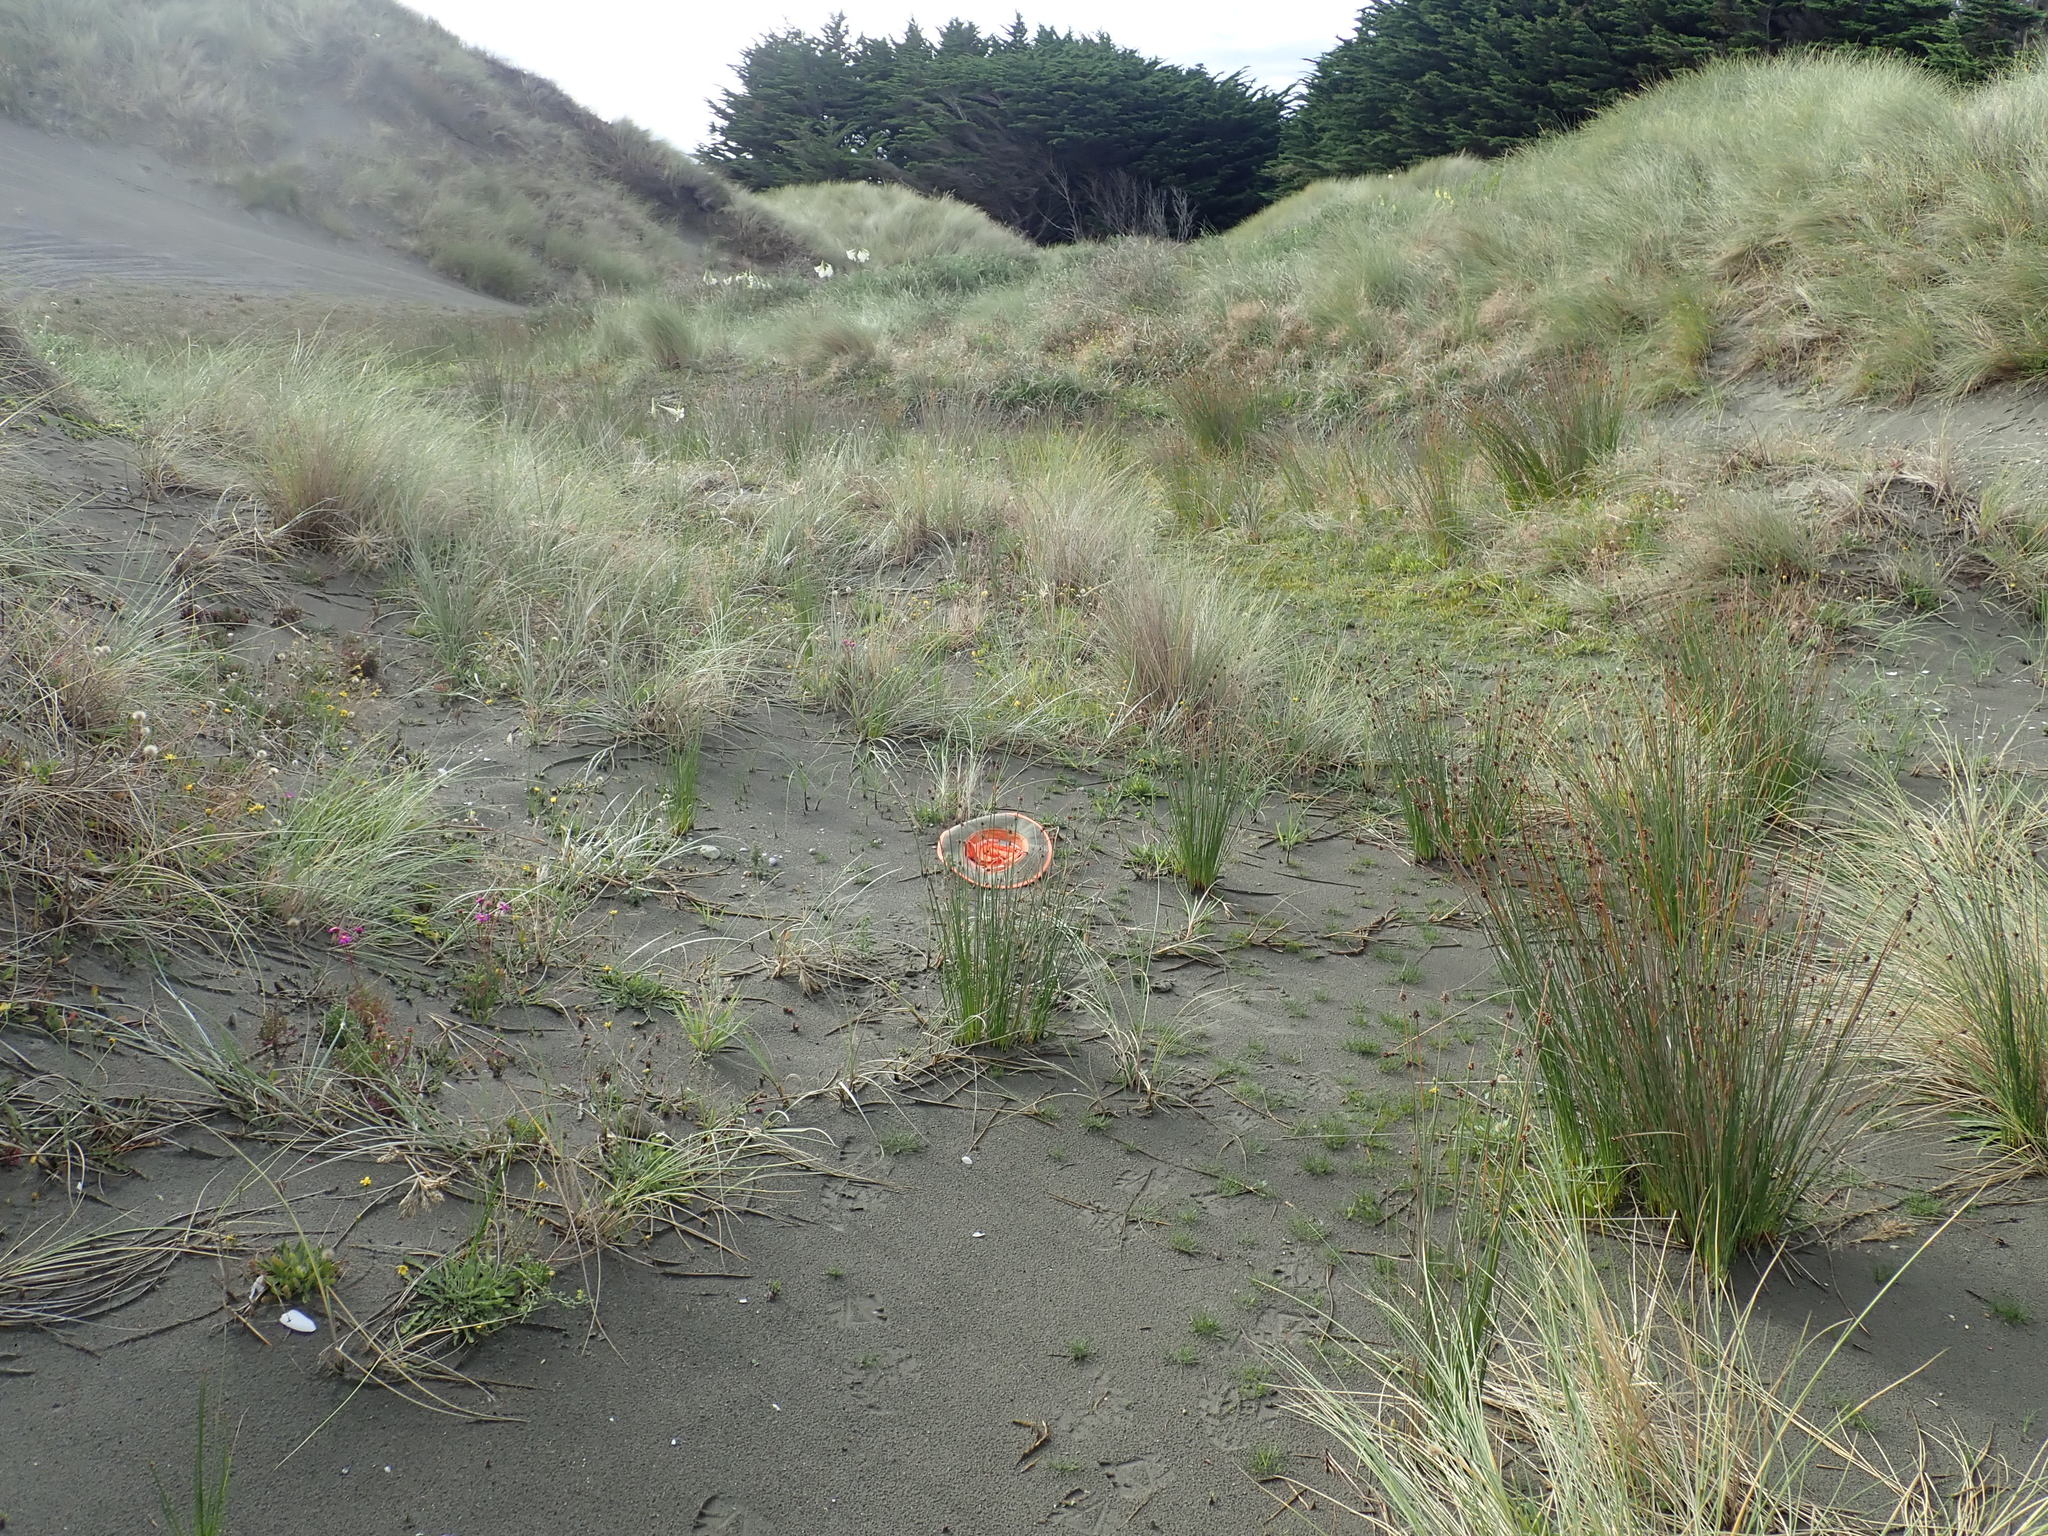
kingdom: Plantae
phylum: Tracheophyta
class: Magnoliopsida
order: Asterales
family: Goodeniaceae
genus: Goodenia
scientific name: Goodenia heenanii
